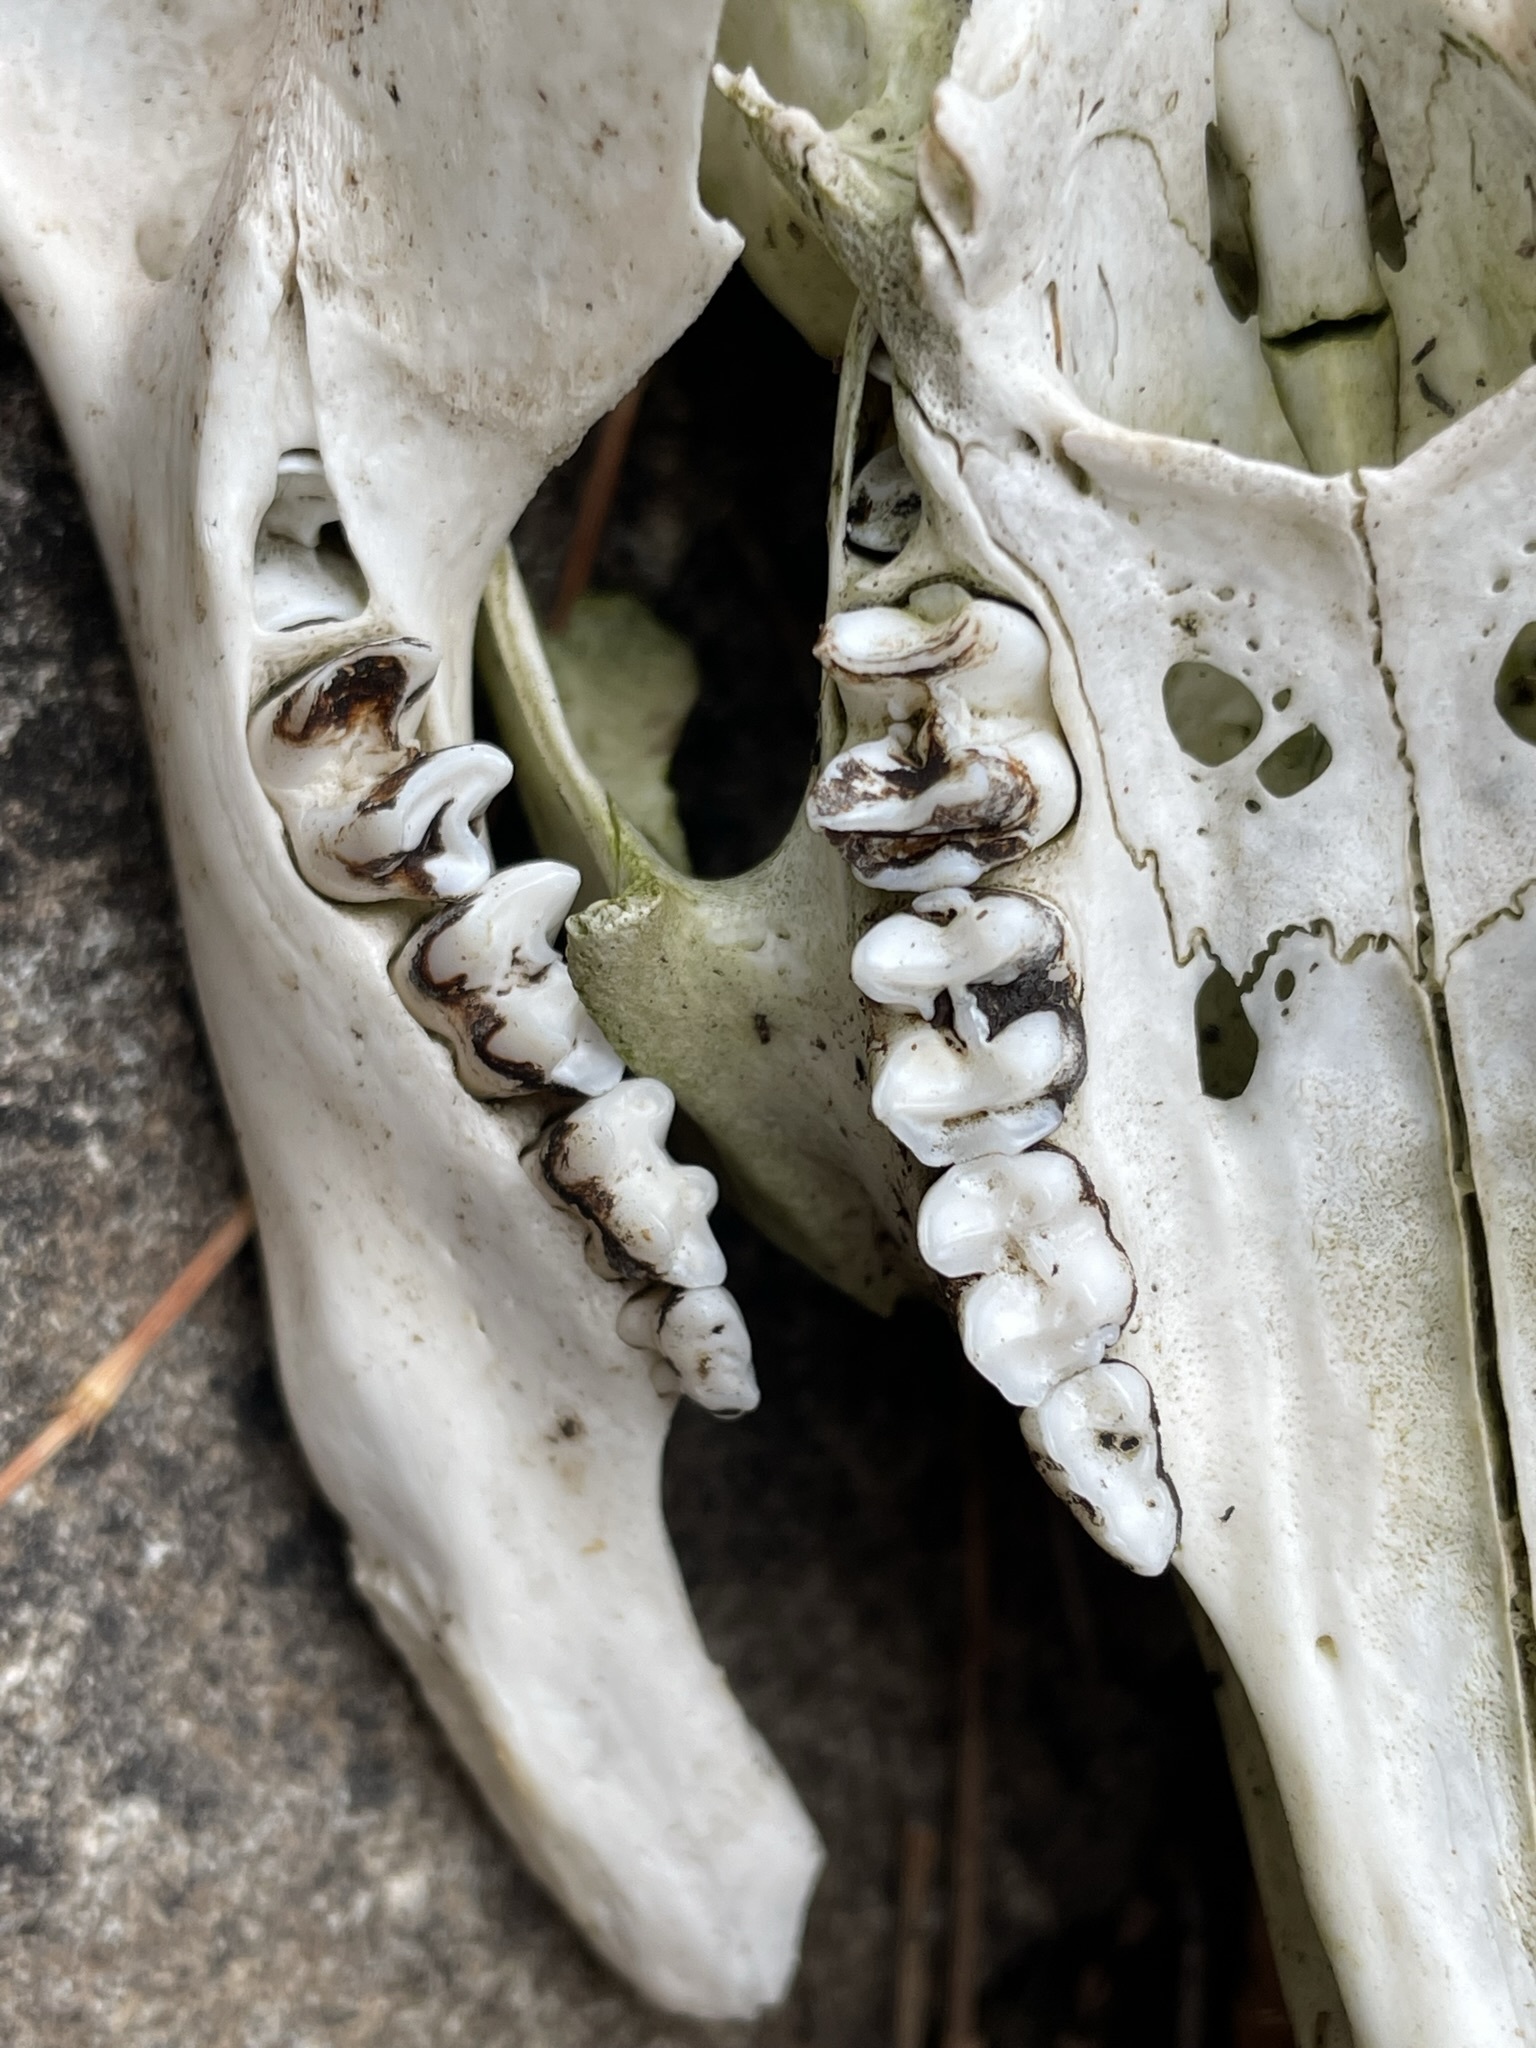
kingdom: Animalia
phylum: Chordata
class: Mammalia
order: Diprotodontia
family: Macropodidae
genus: Notamacropus
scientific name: Notamacropus rufogriseus
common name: Red-necked wallaby
